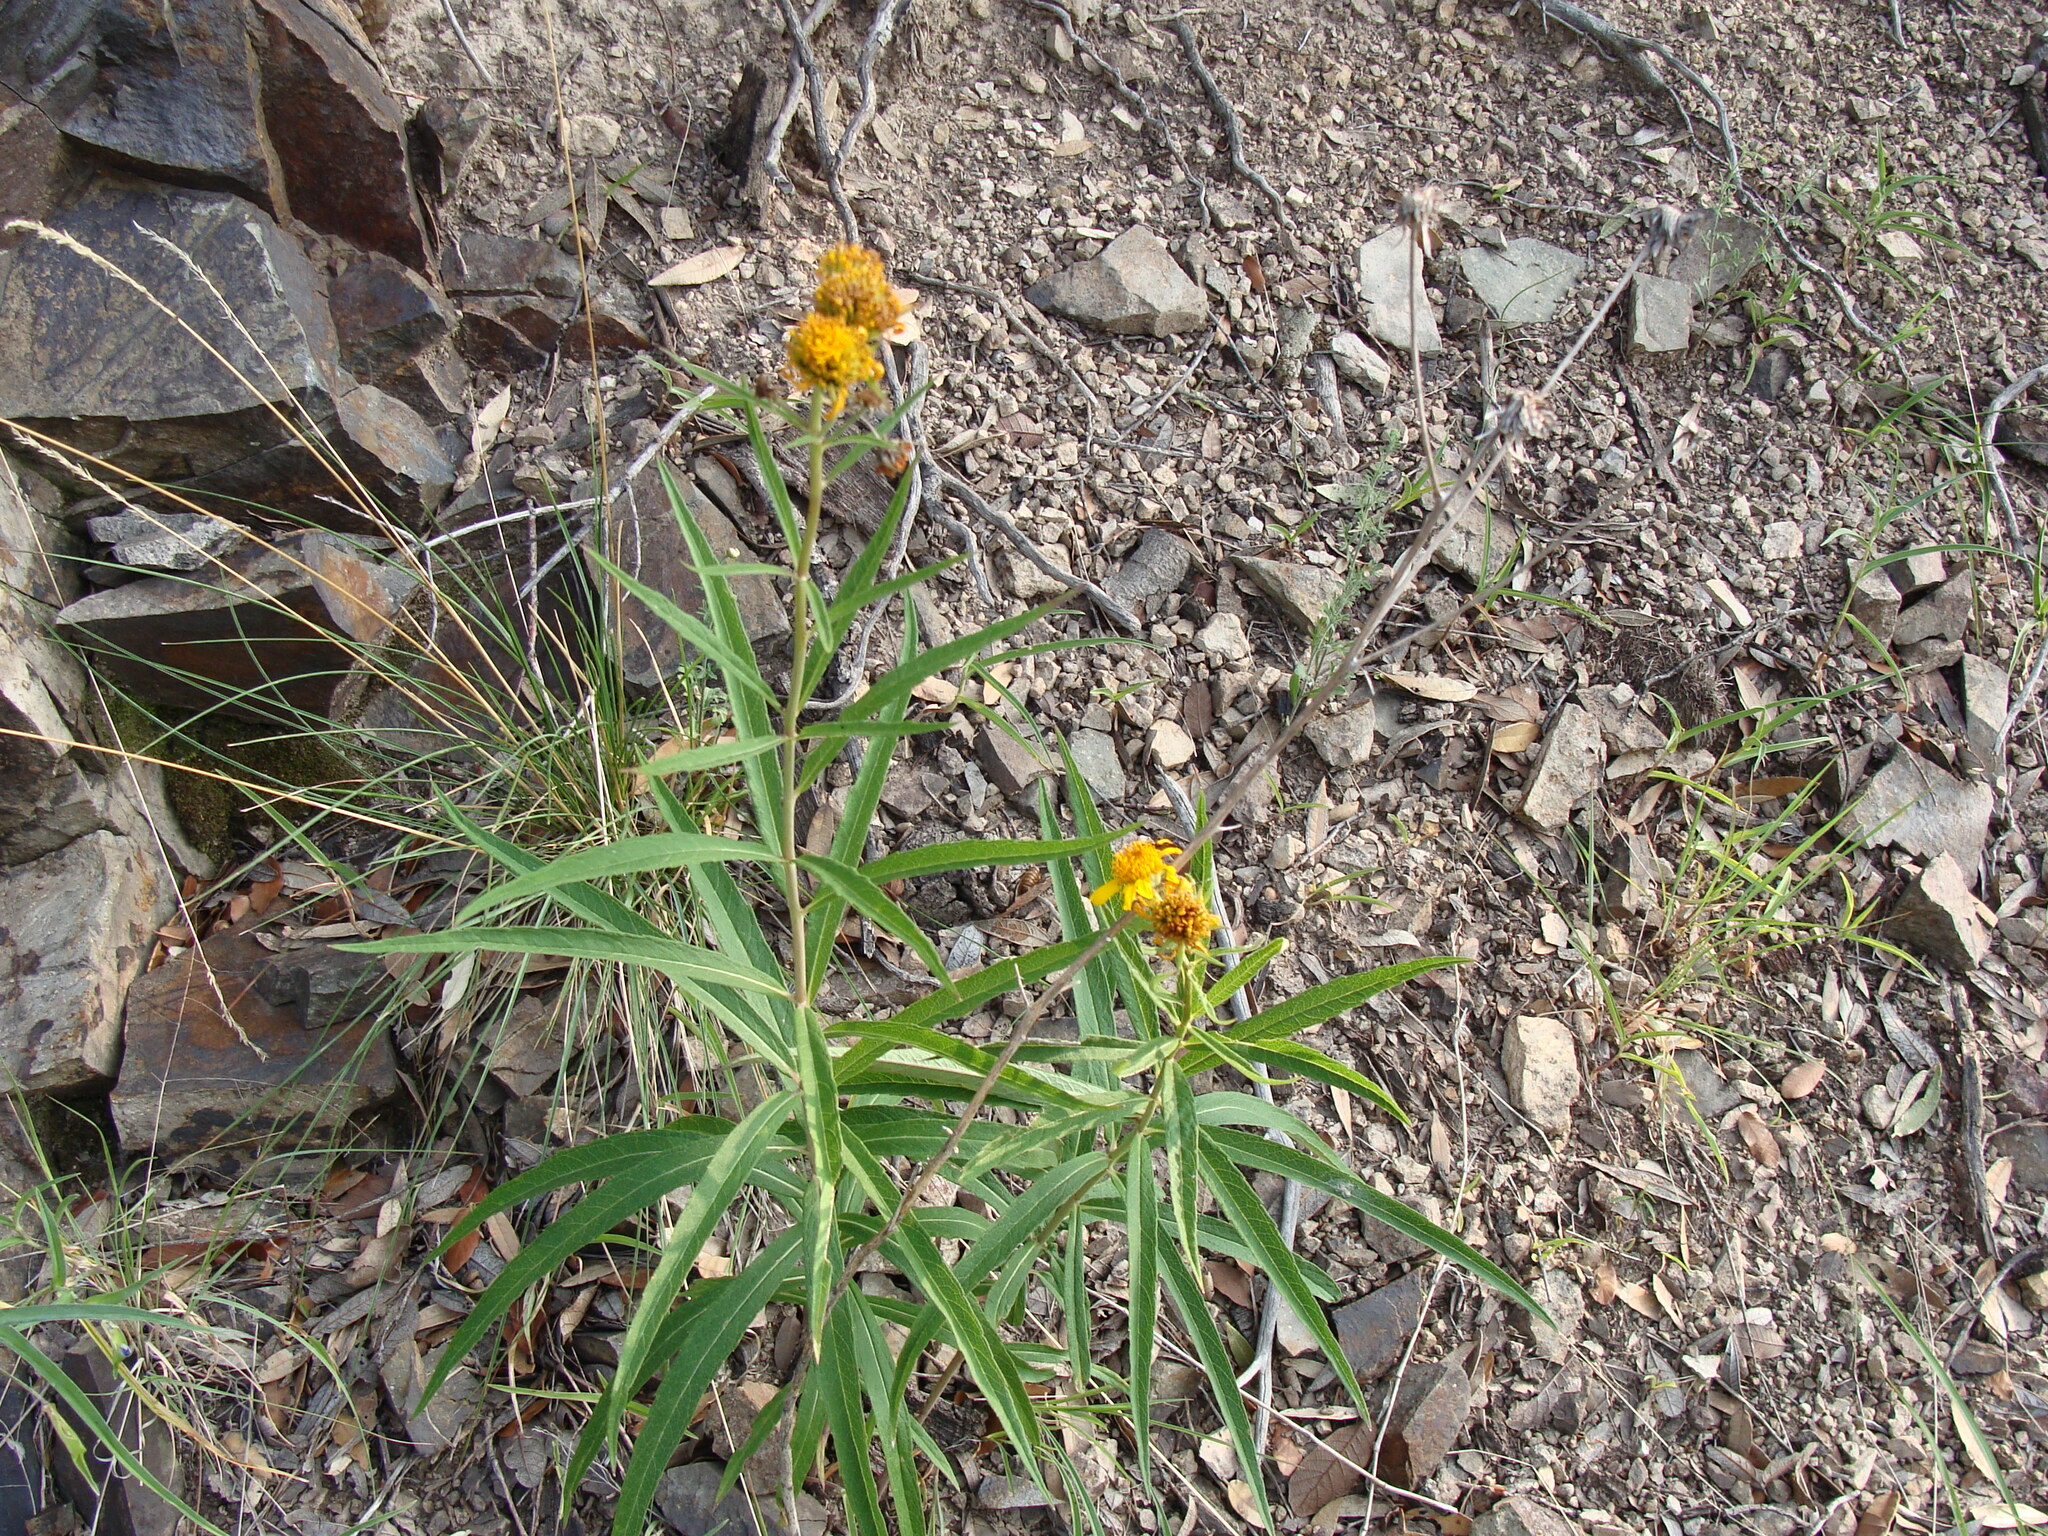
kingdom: Plantae
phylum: Tracheophyta
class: Magnoliopsida
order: Asterales
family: Asteraceae
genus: Verbesina
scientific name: Verbesina longifolia
